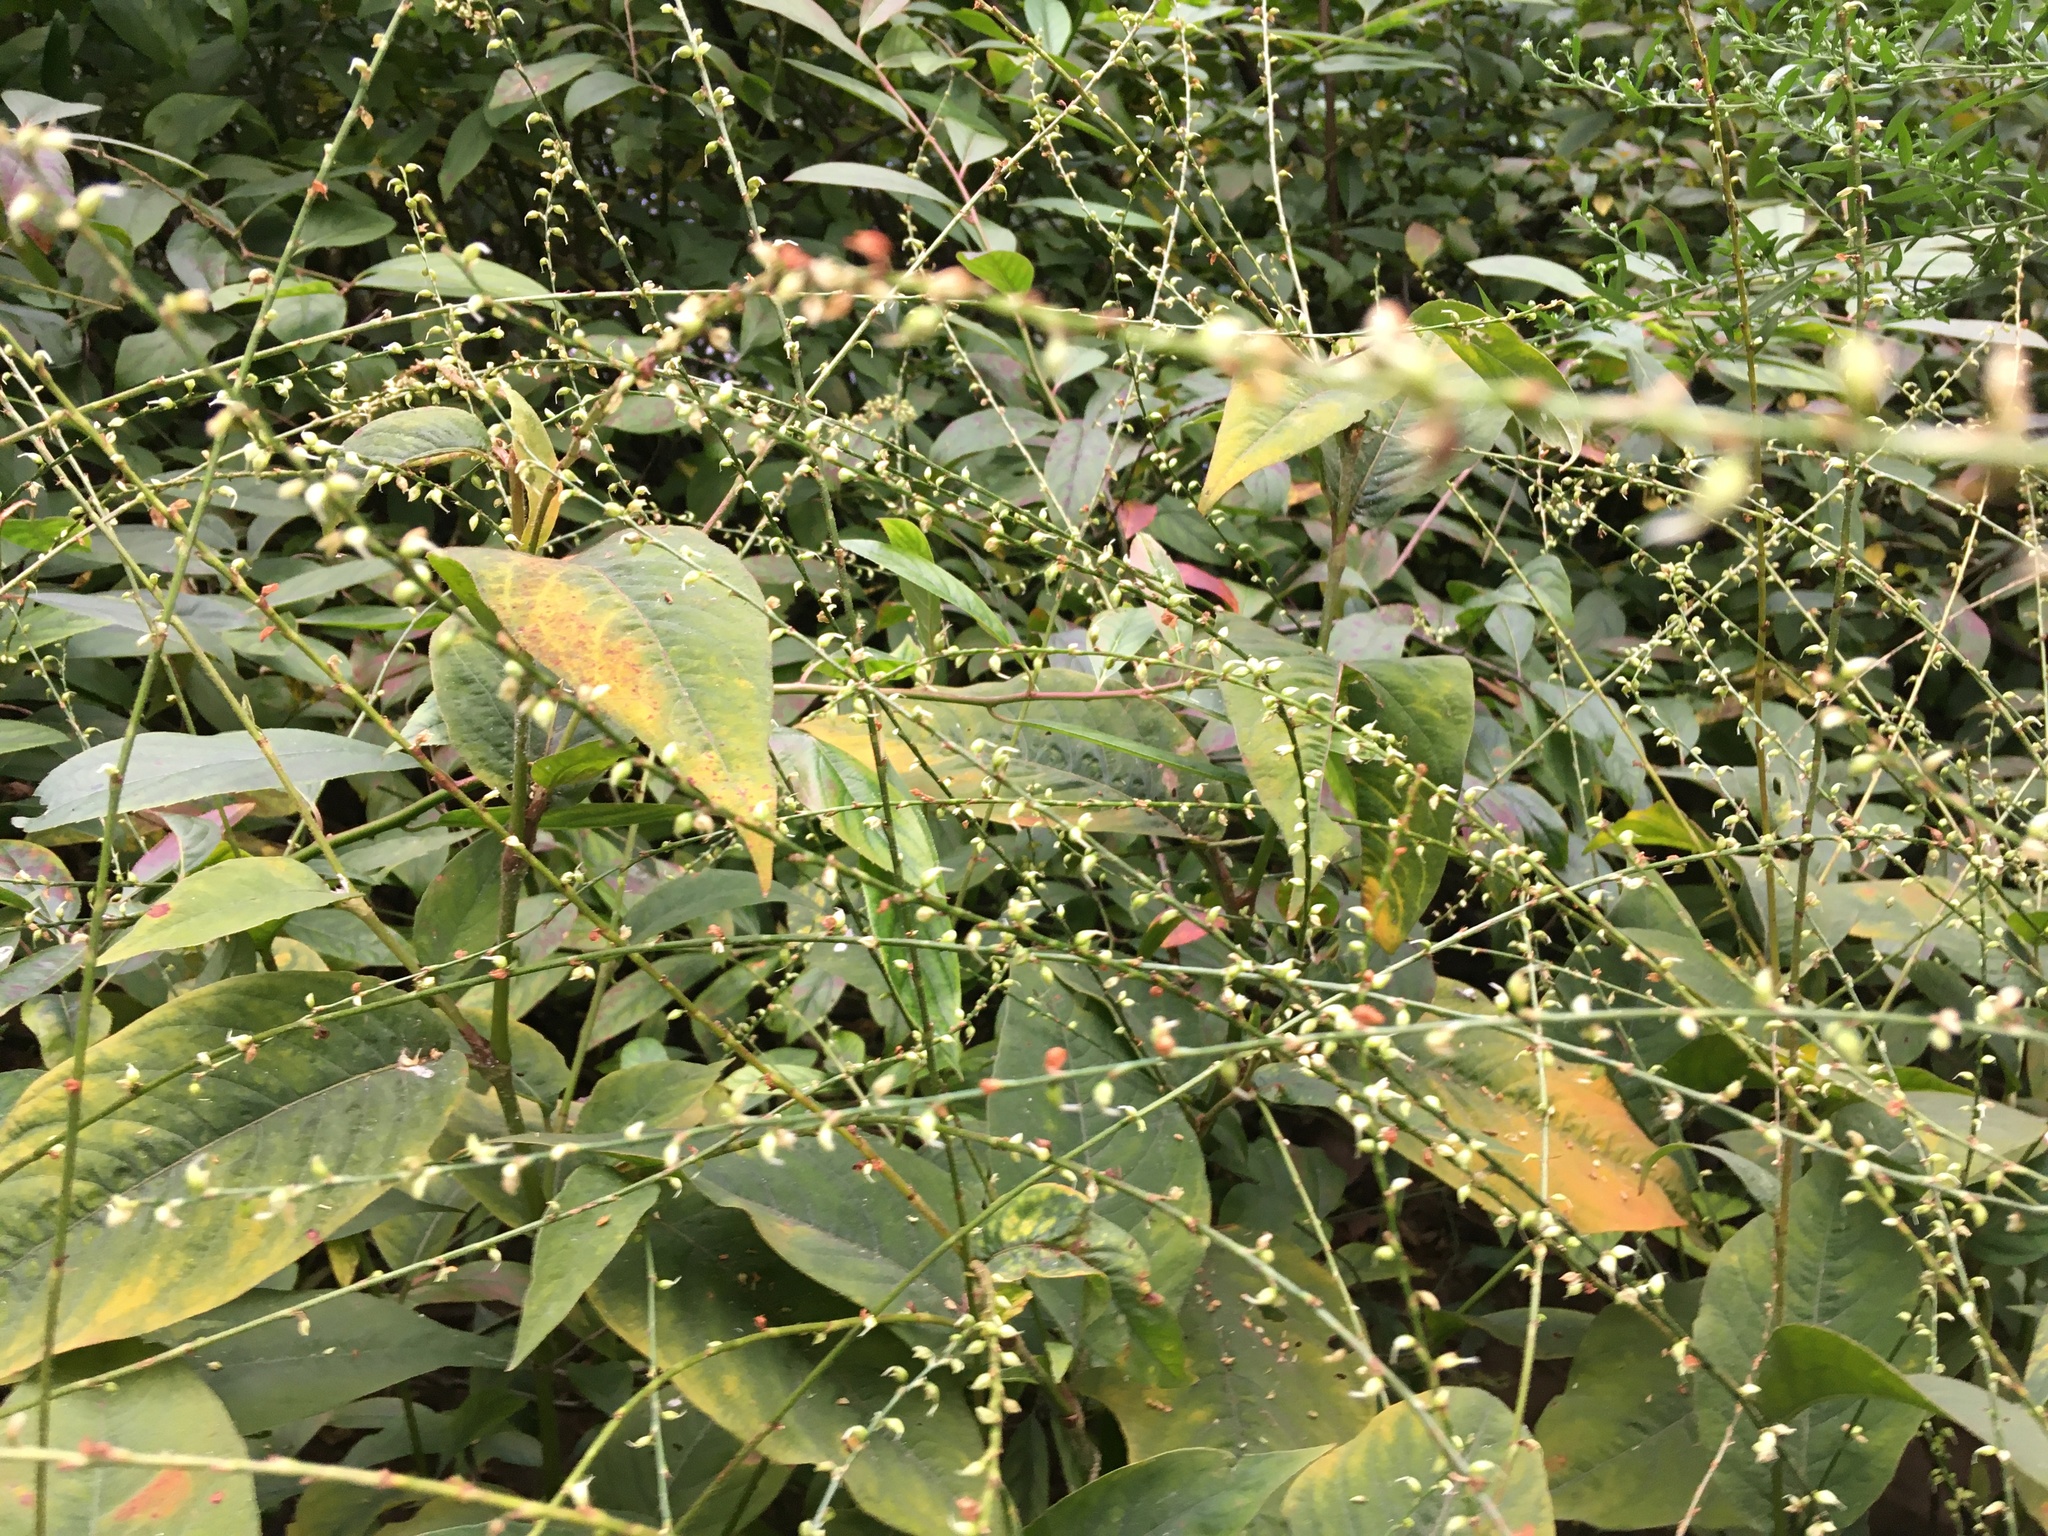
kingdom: Plantae
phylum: Tracheophyta
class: Magnoliopsida
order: Caryophyllales
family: Polygonaceae
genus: Persicaria
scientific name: Persicaria virginiana
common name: Jumpseed
